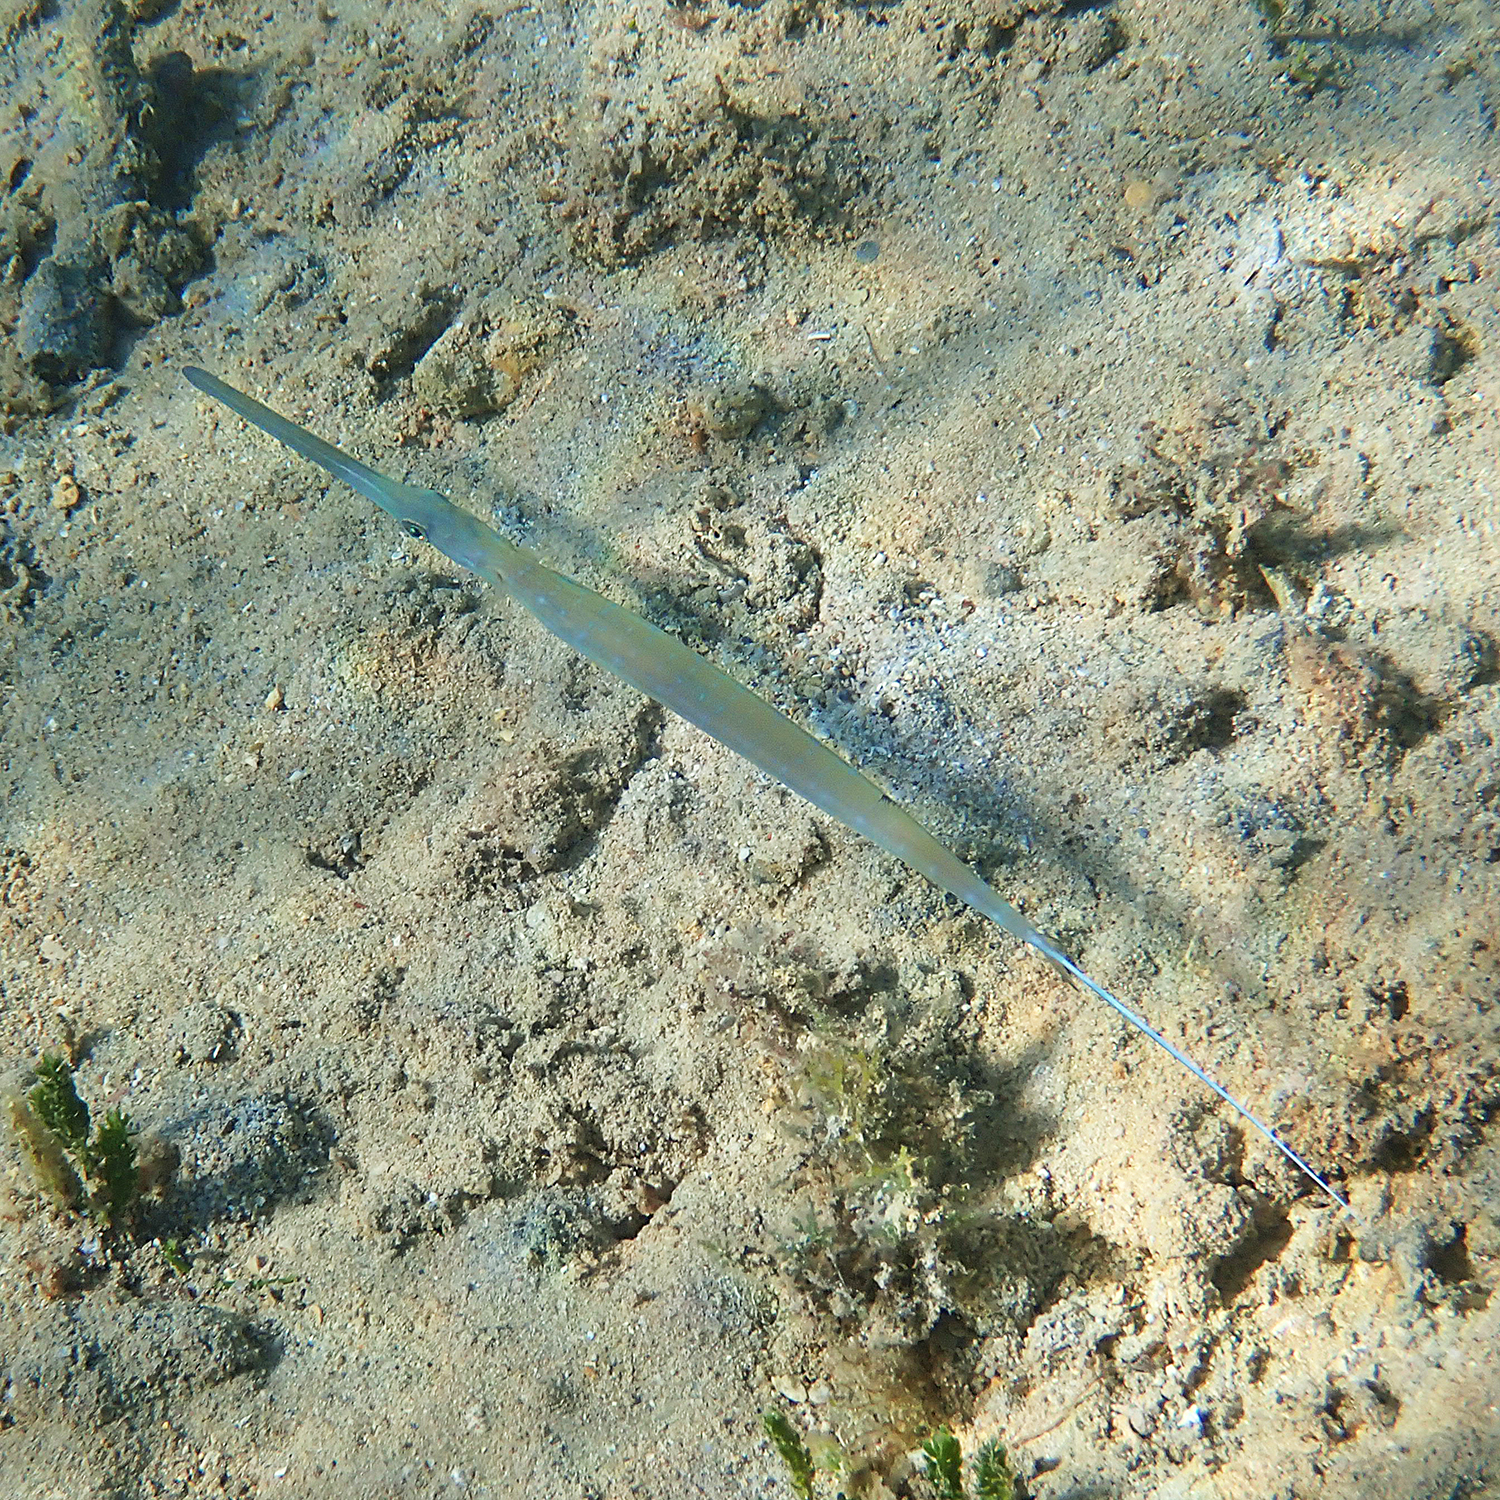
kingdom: Animalia
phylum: Chordata
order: Syngnathiformes
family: Fistulariidae
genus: Fistularia
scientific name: Fistularia commersonii
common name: Bluespotted cornetfish
